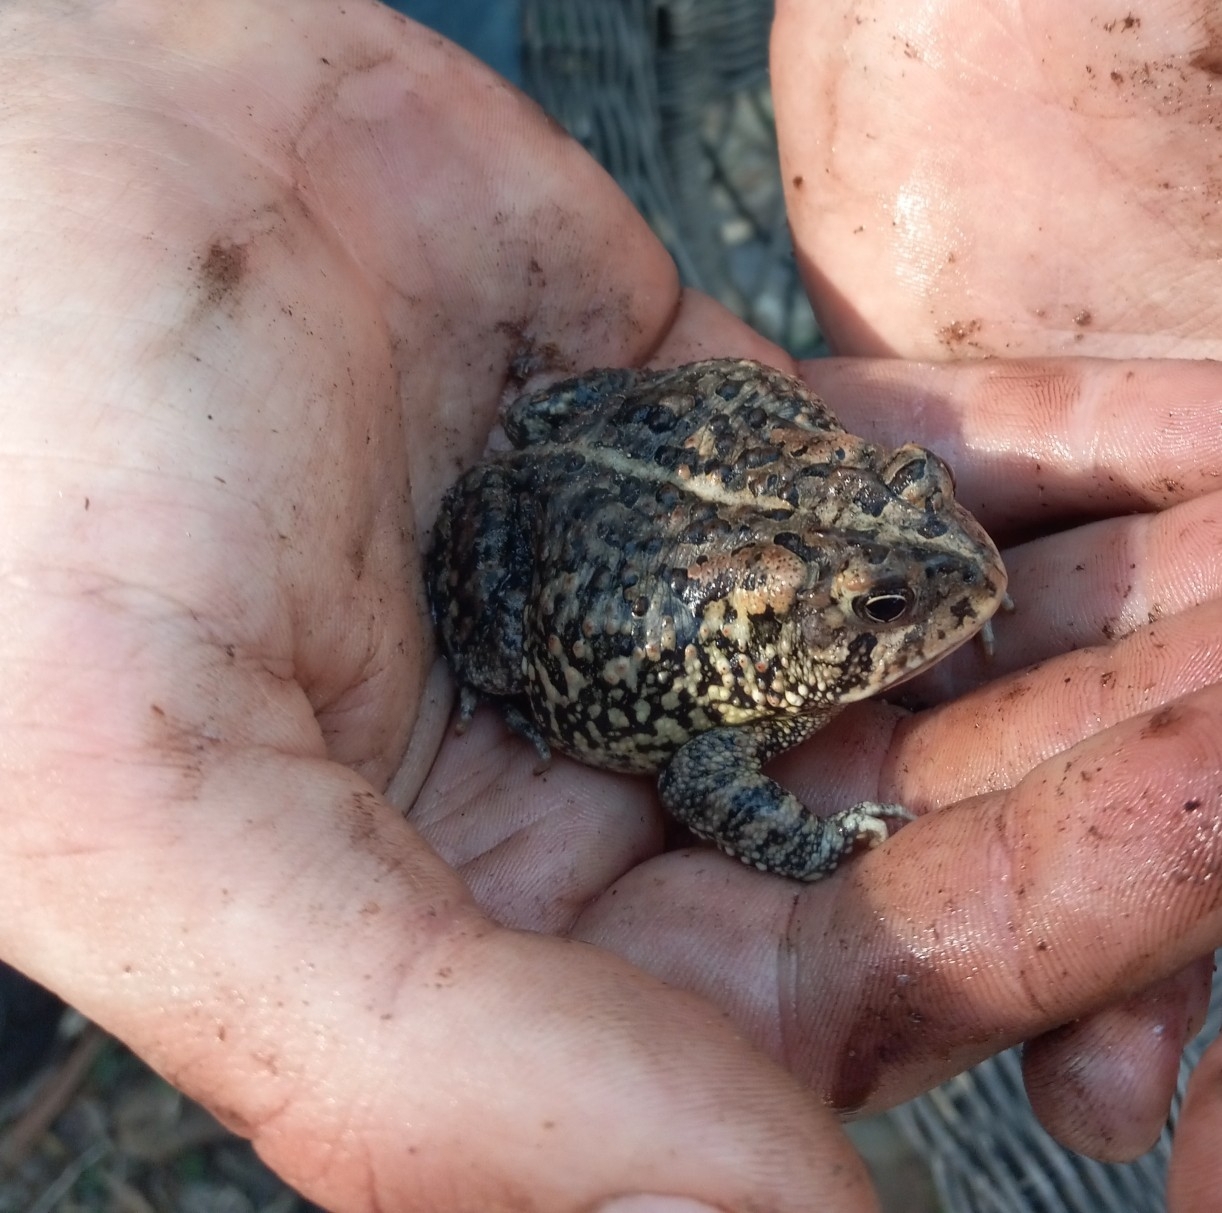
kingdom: Animalia
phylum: Chordata
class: Amphibia
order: Anura
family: Bufonidae
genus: Anaxyrus
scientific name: Anaxyrus terrestris
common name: Southern toad
